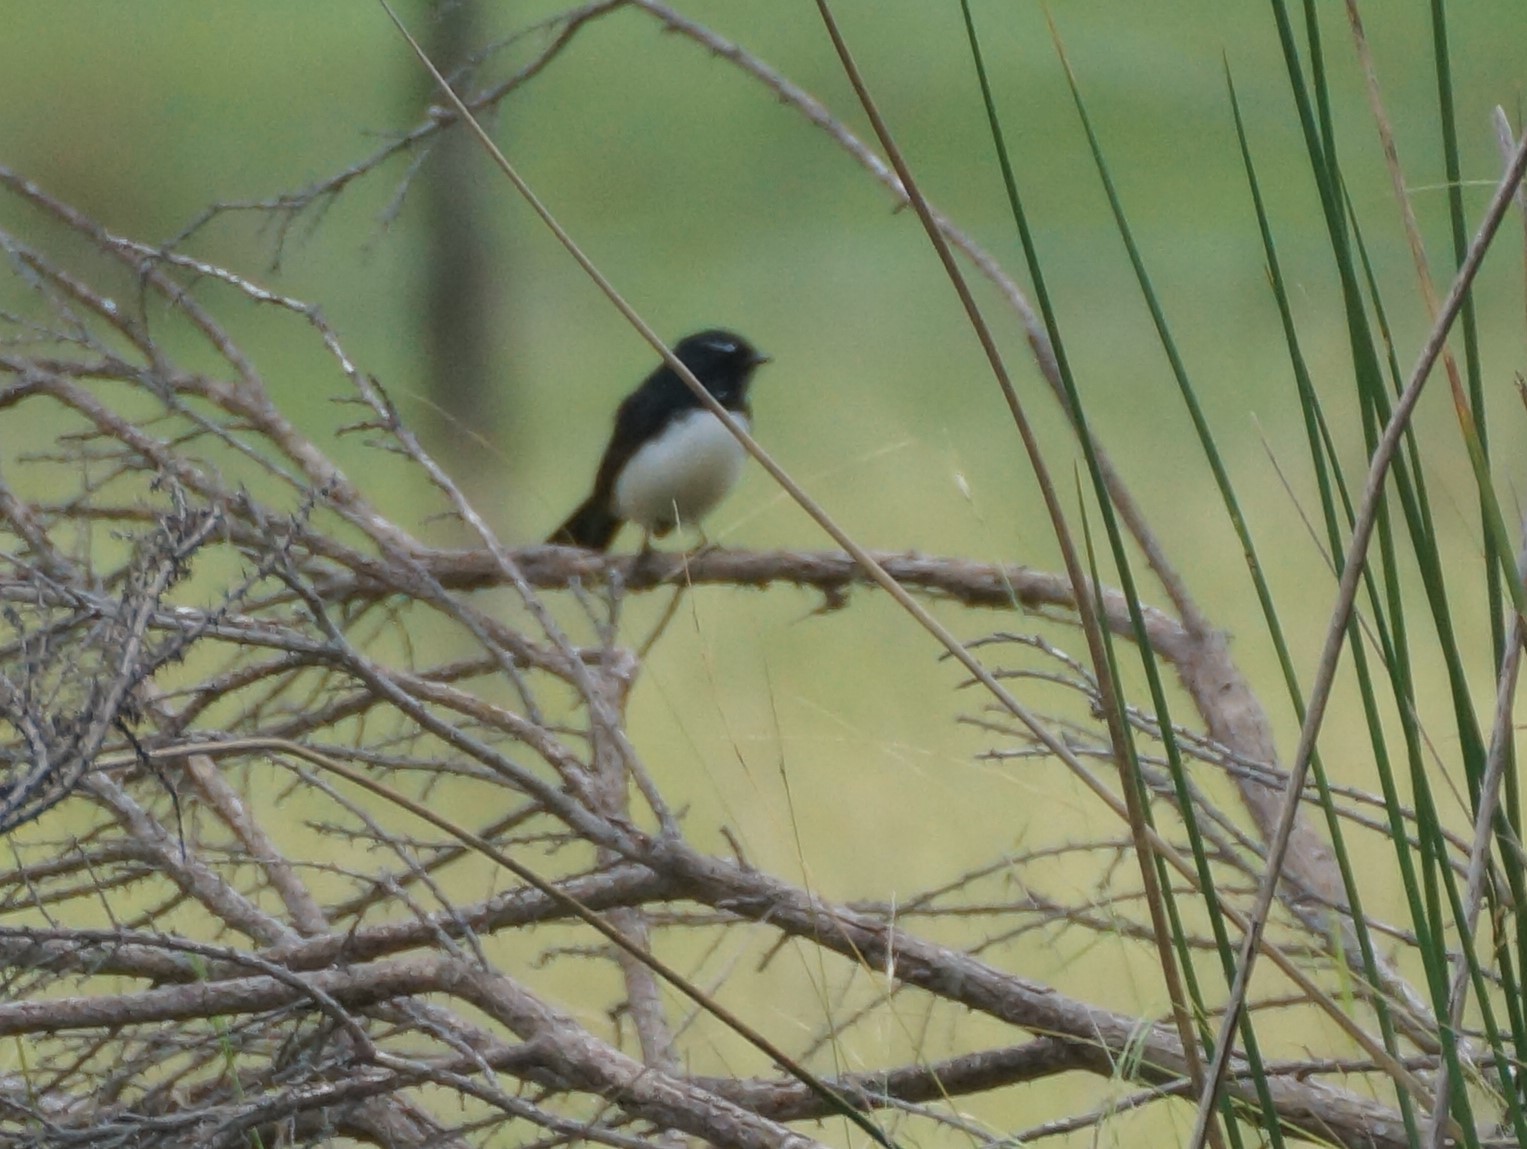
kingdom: Animalia
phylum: Chordata
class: Aves
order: Passeriformes
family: Rhipiduridae
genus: Rhipidura
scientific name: Rhipidura leucophrys
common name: Willie wagtail
